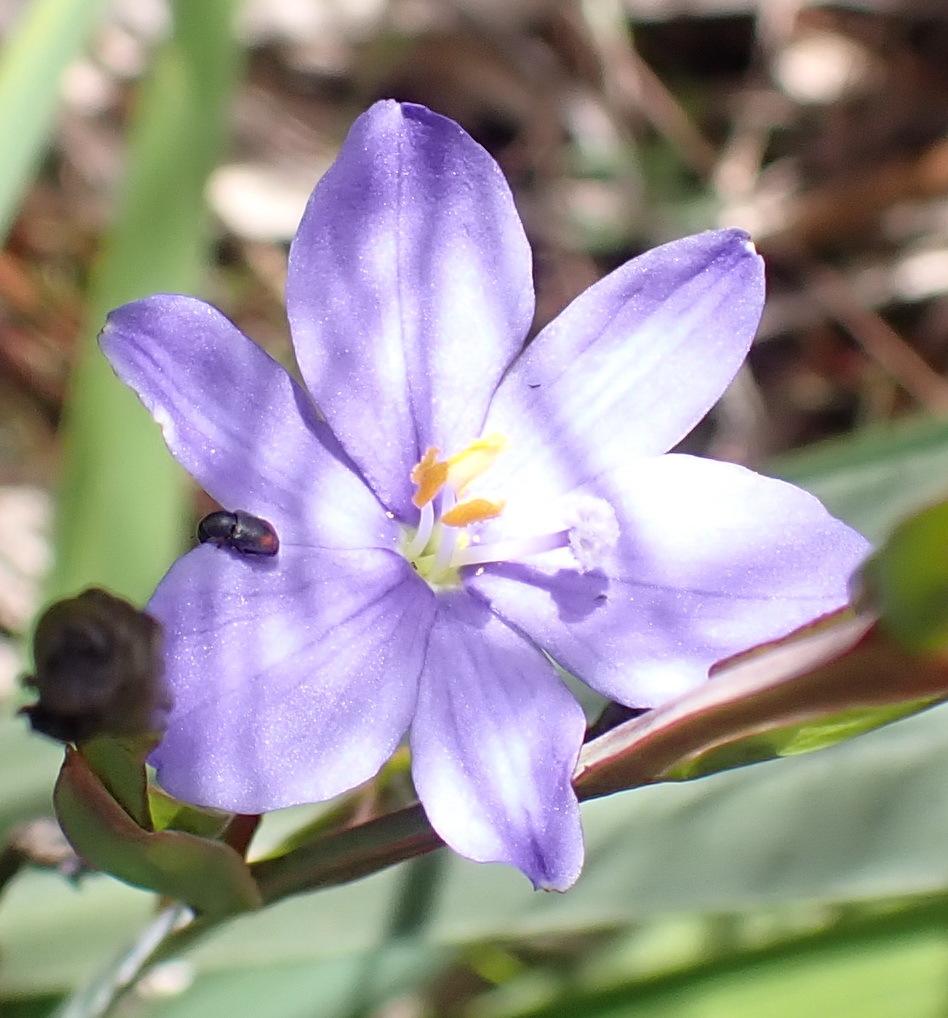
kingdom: Plantae
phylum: Tracheophyta
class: Liliopsida
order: Asparagales
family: Iridaceae
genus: Aristea
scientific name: Aristea ecklonii
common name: Blue corn-lily
